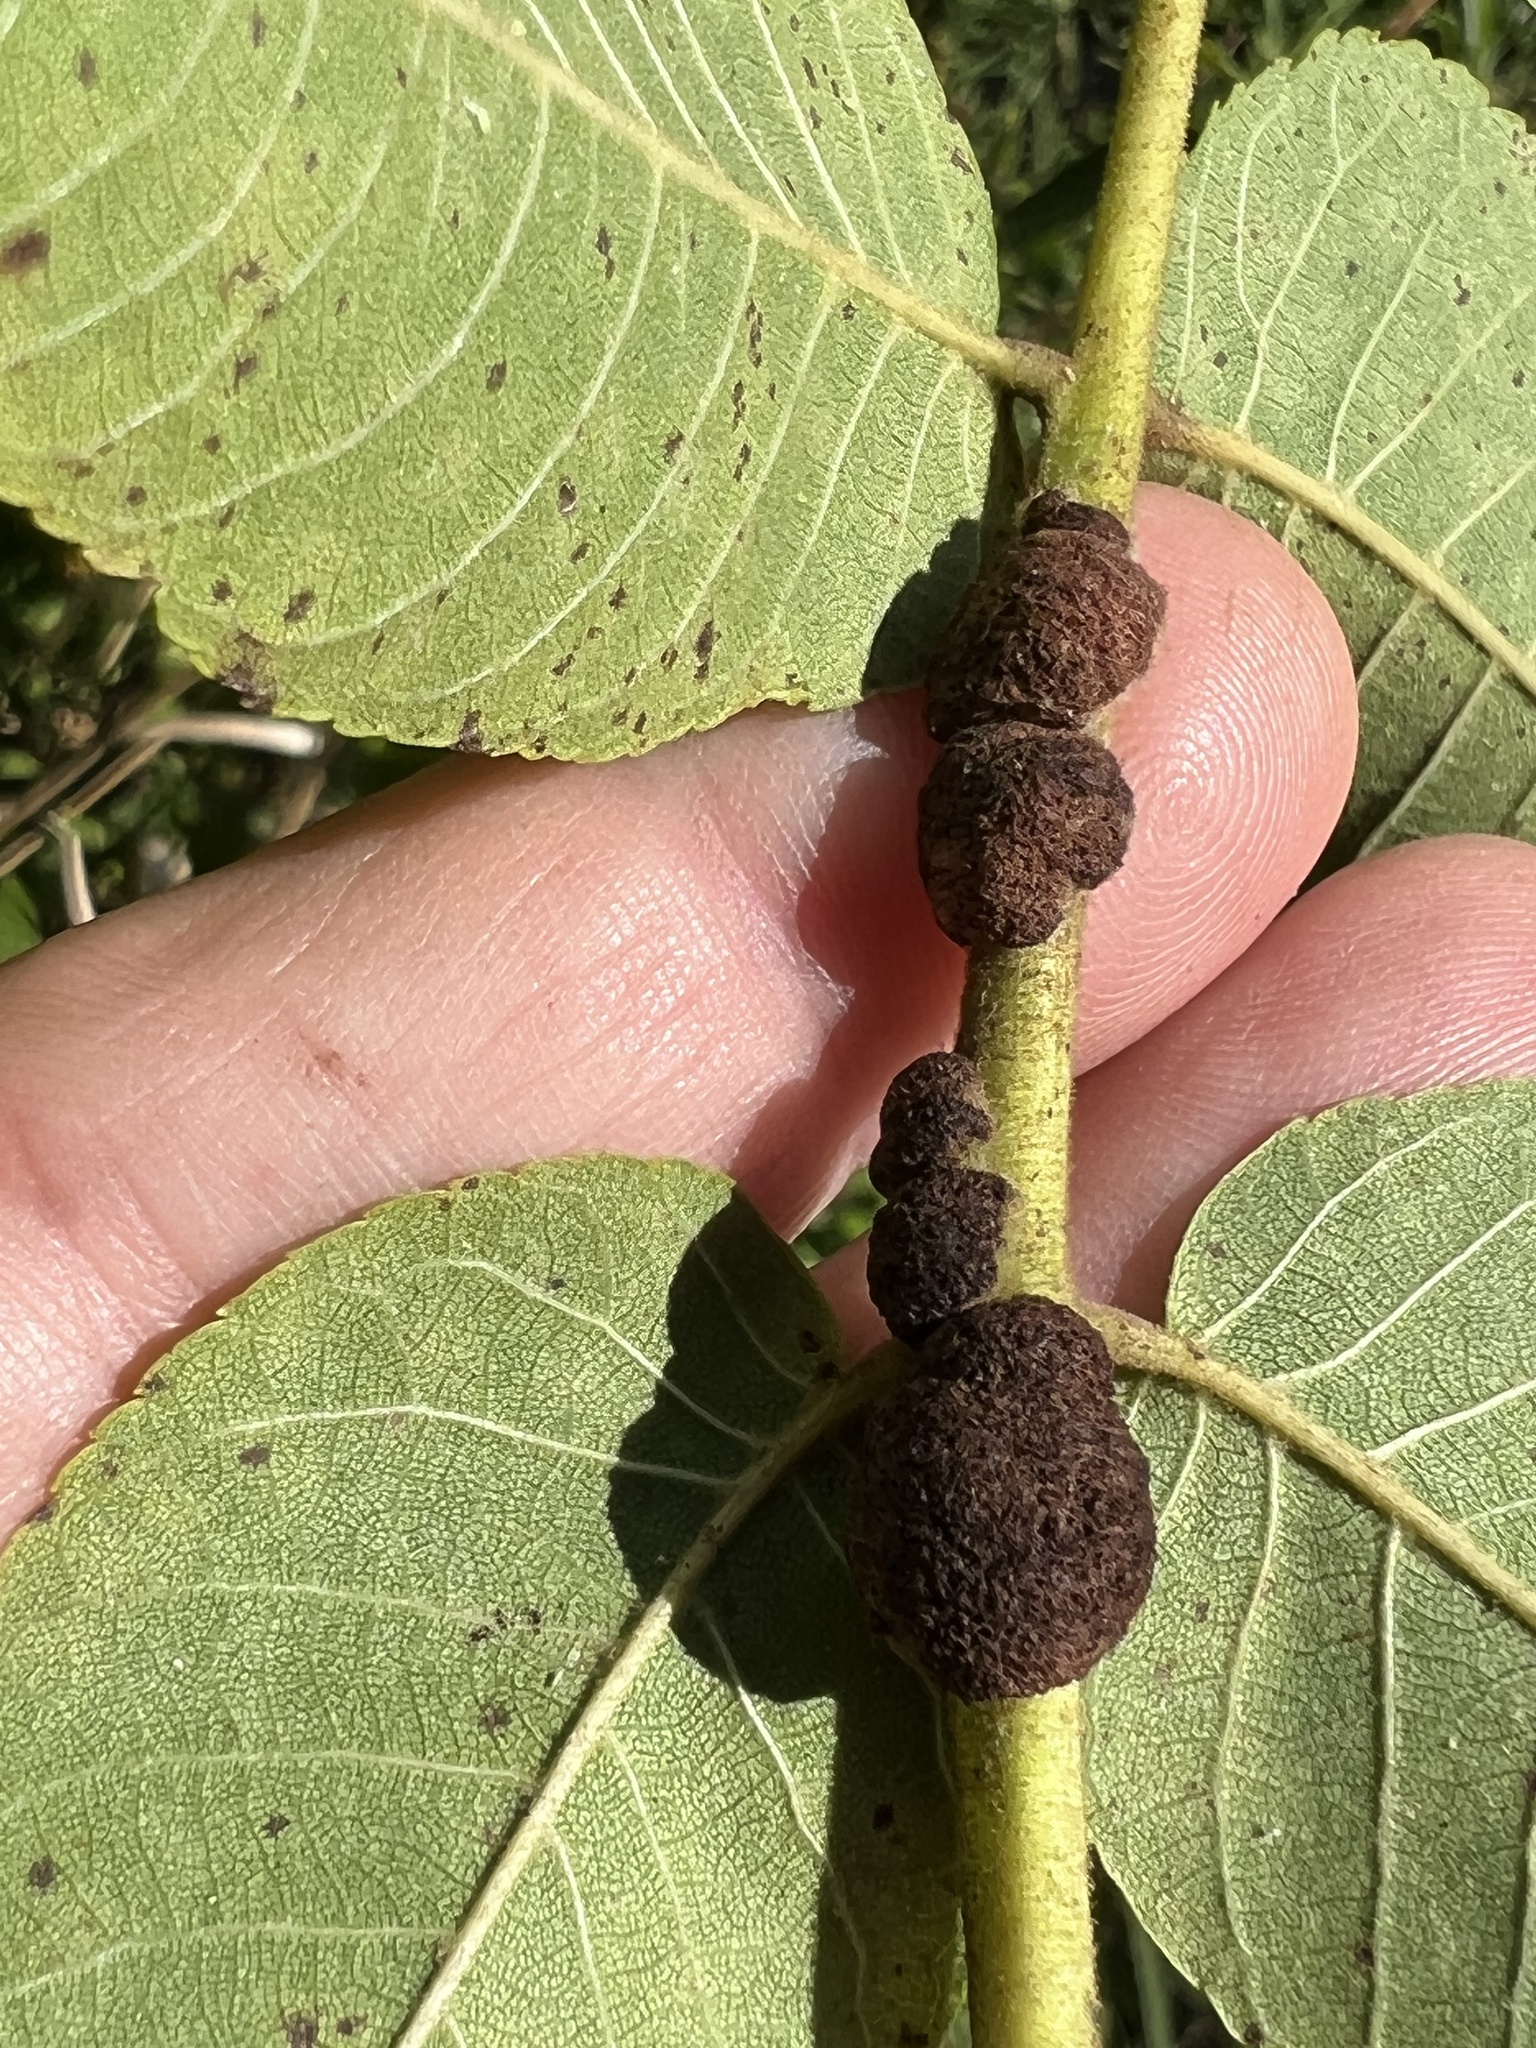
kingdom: Animalia
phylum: Arthropoda
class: Arachnida
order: Trombidiformes
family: Eriophyidae
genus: Aceria
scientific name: Aceria
